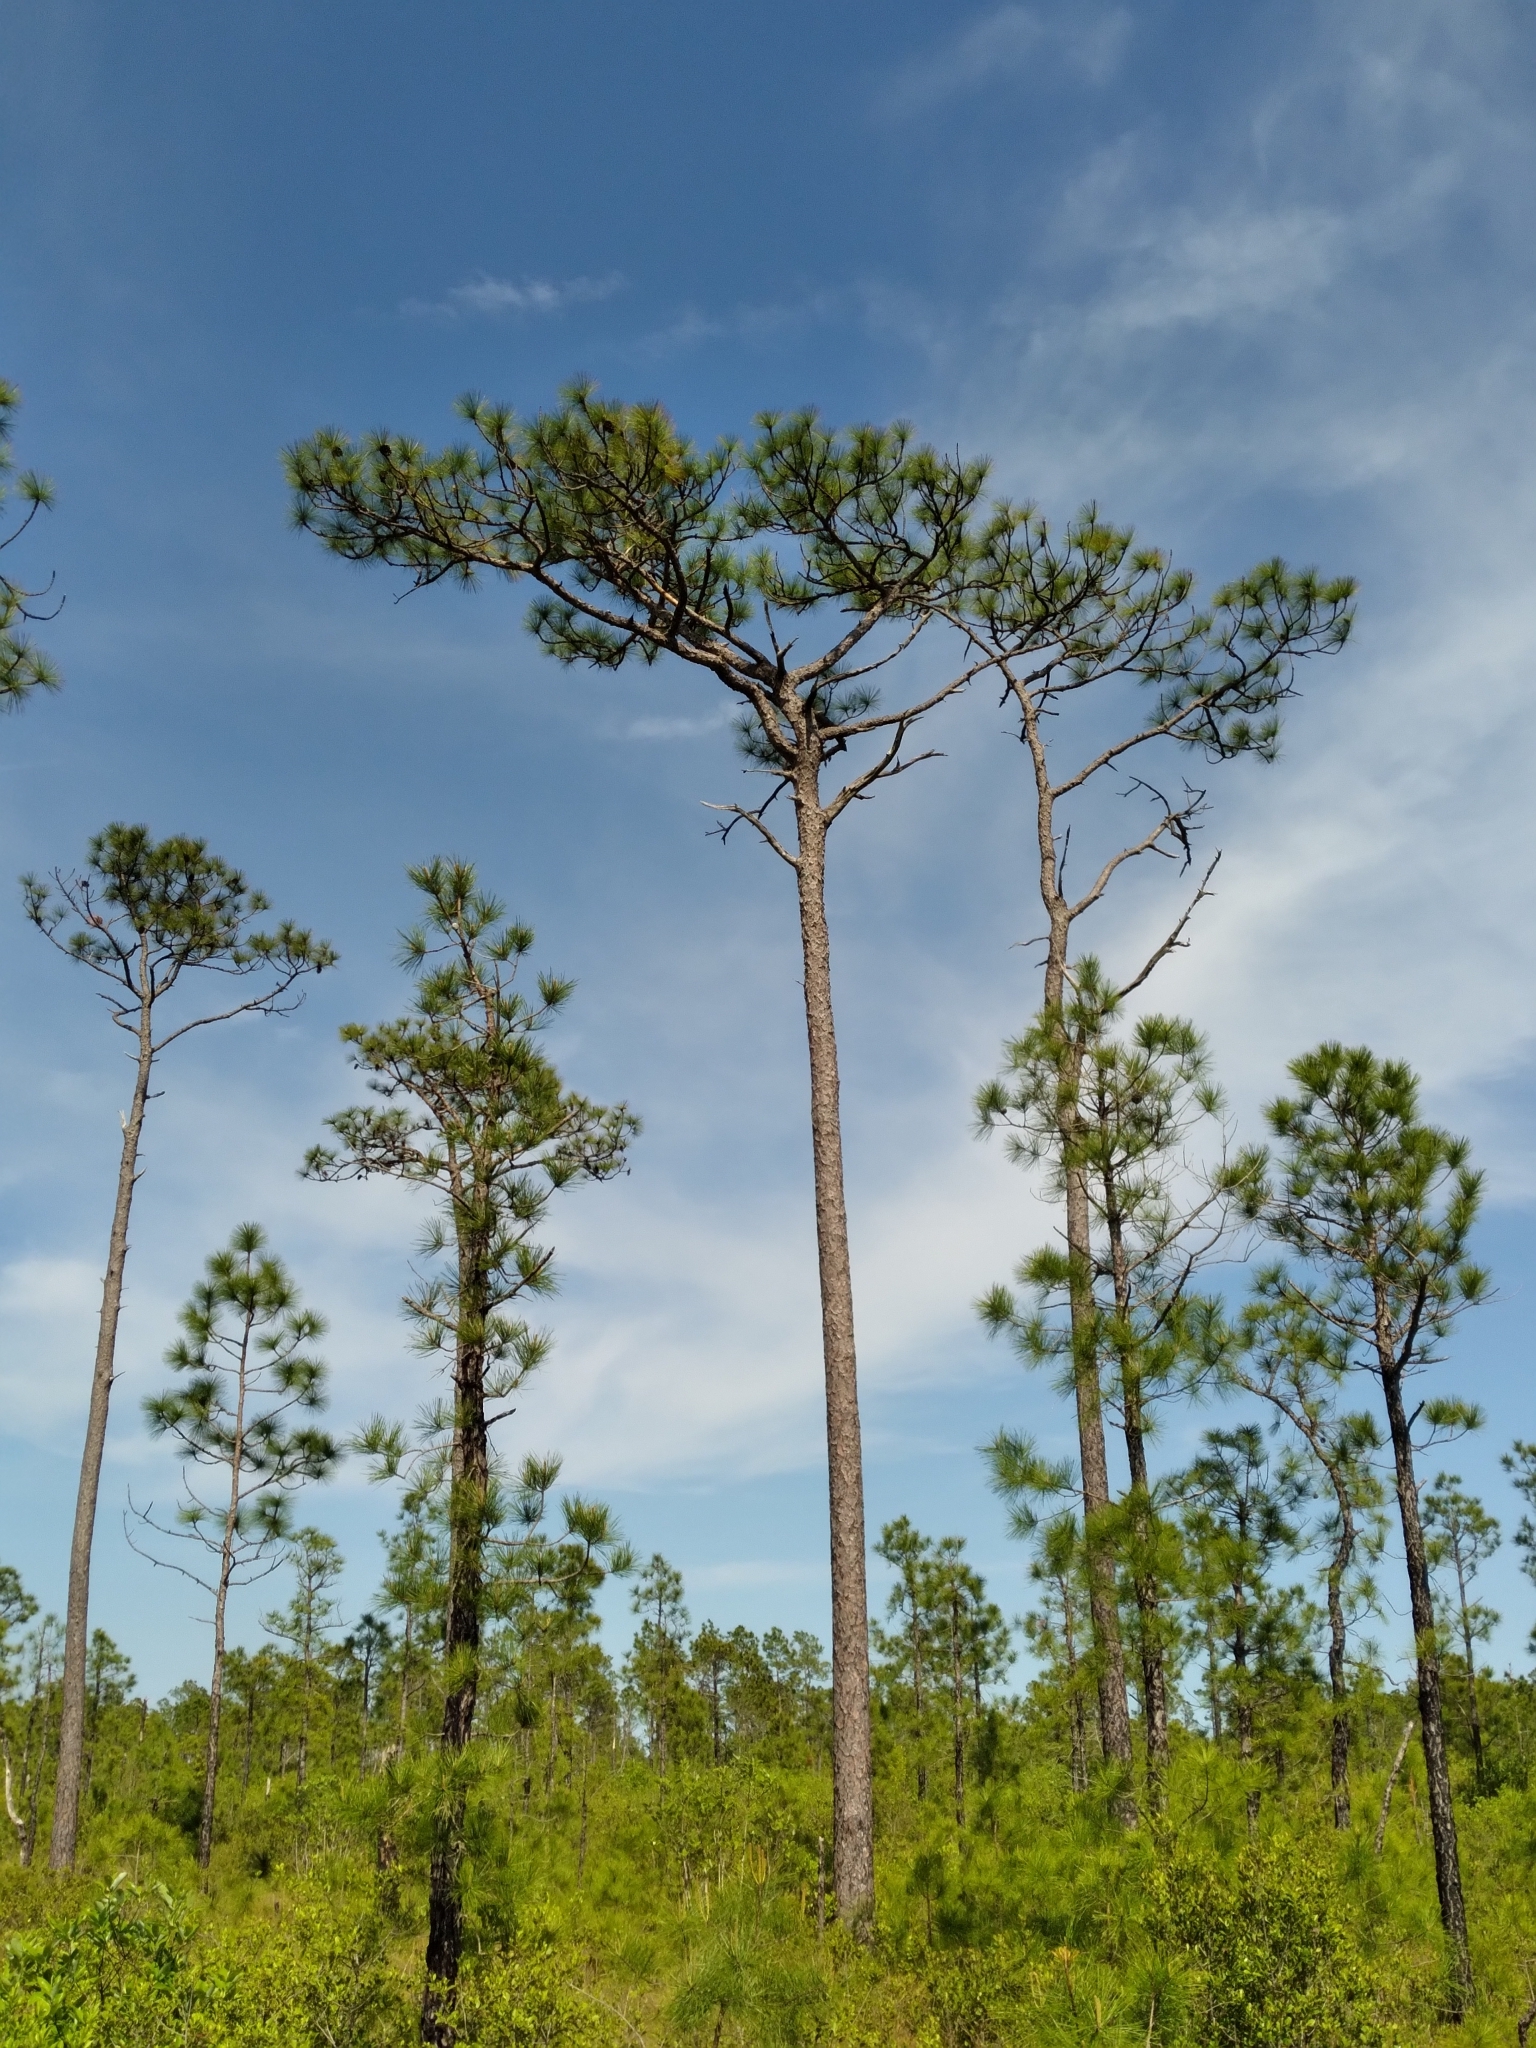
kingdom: Plantae
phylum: Tracheophyta
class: Pinopsida
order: Pinales
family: Pinaceae
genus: Pinus
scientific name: Pinus palustris
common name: Longleaf pine
